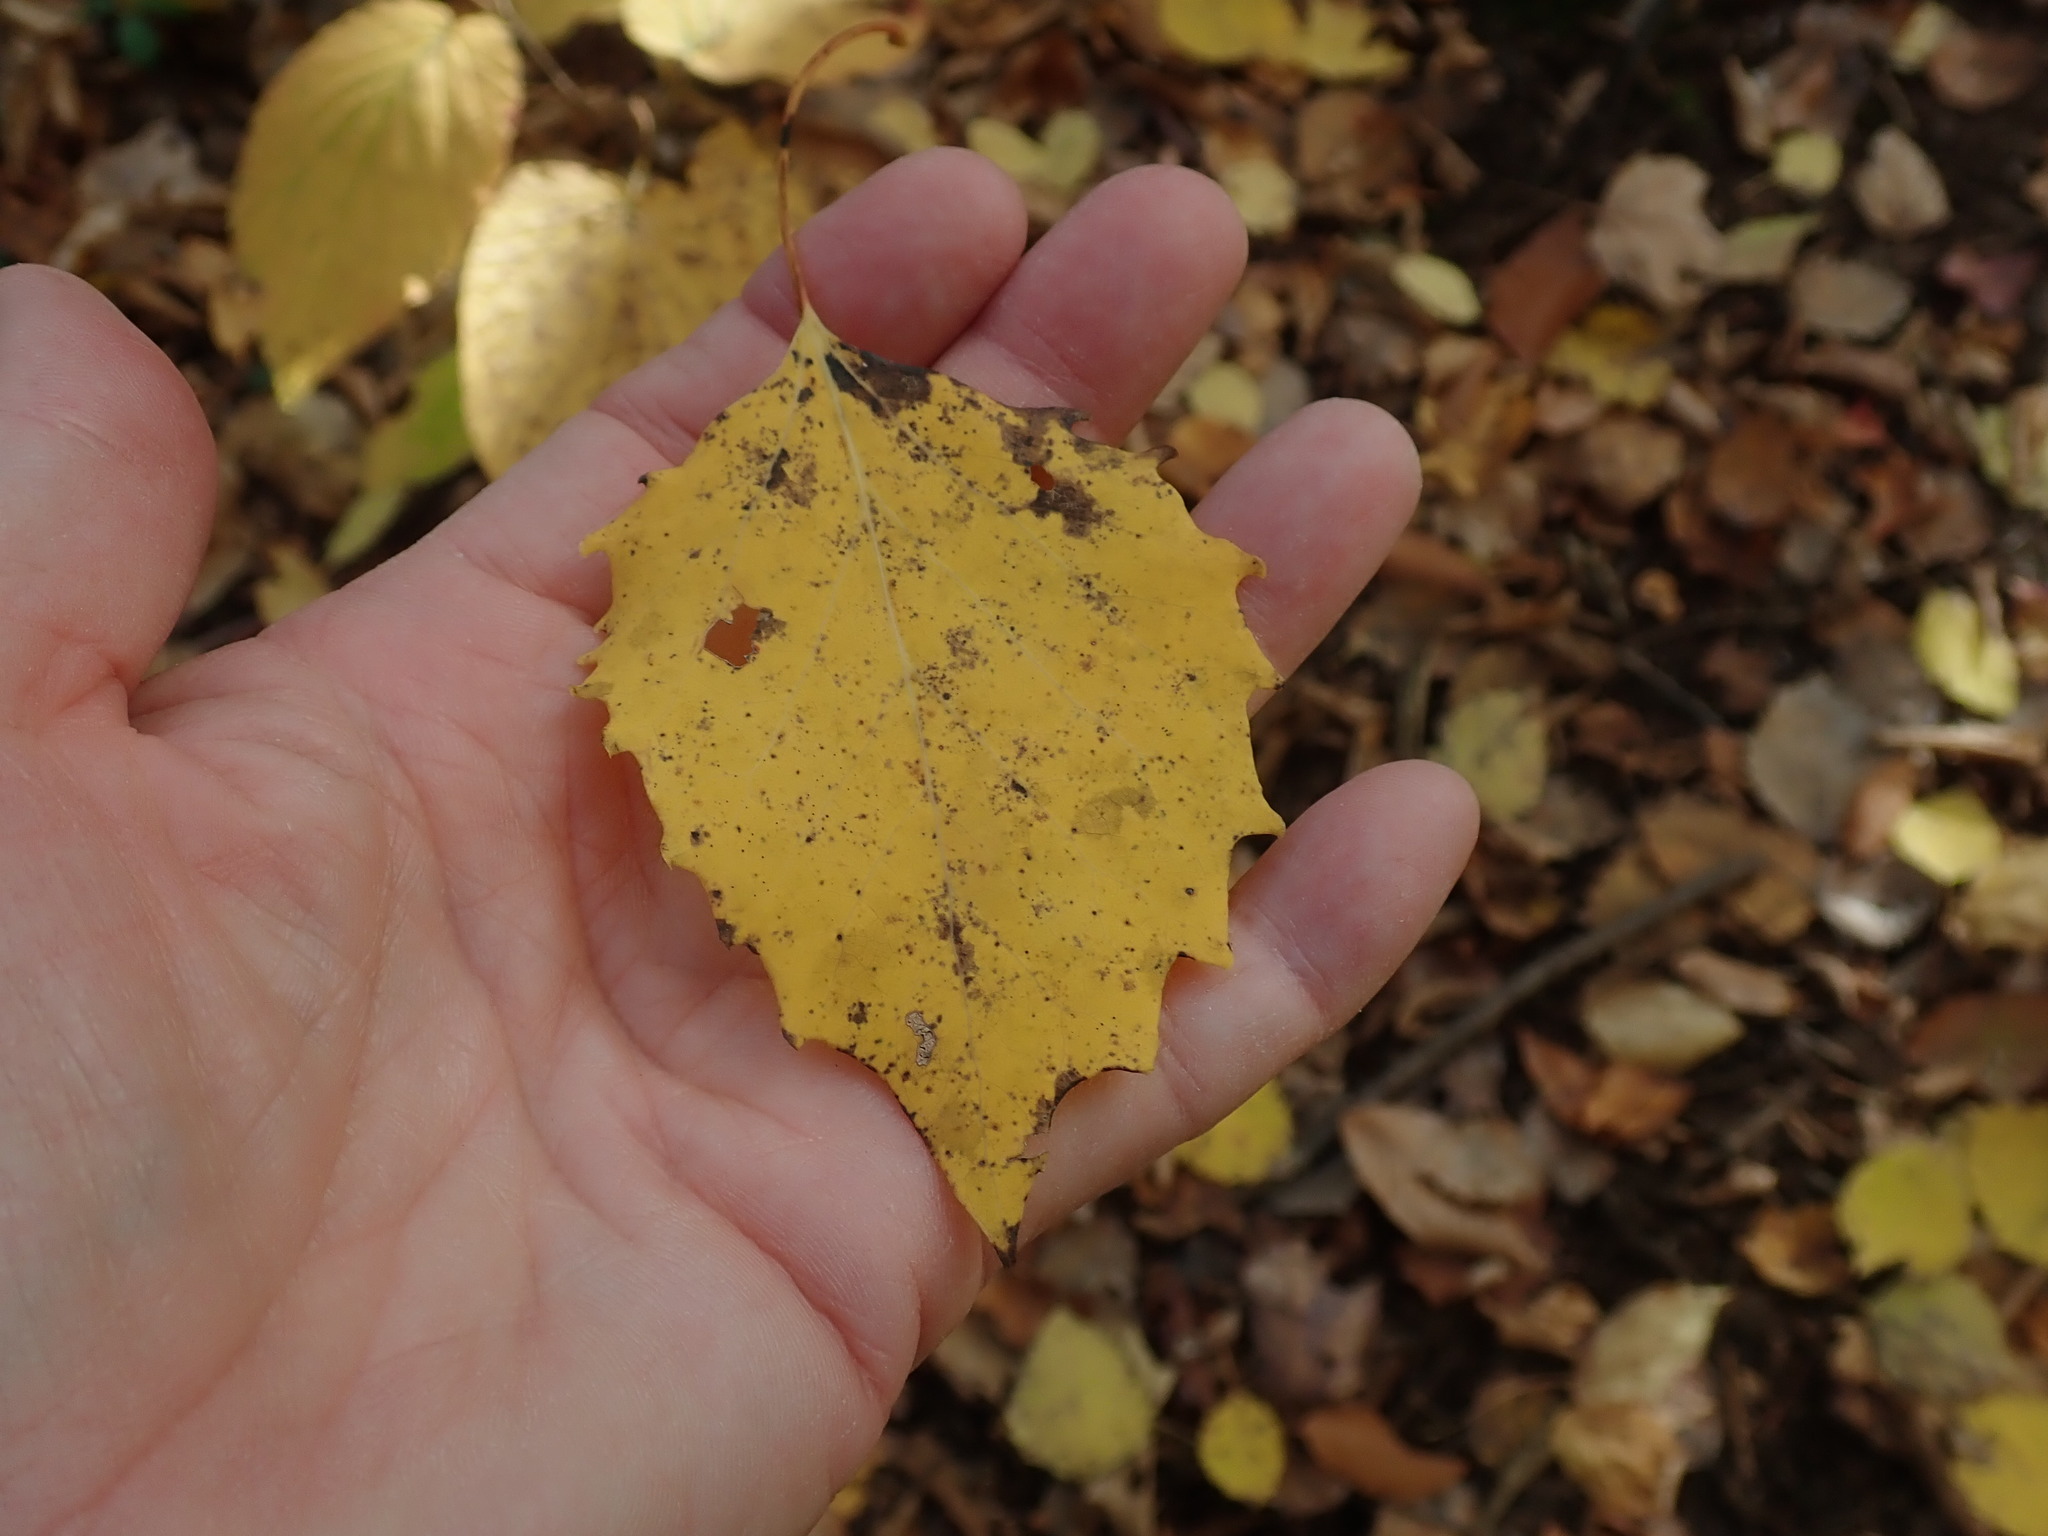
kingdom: Plantae
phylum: Tracheophyta
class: Magnoliopsida
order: Malpighiales
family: Salicaceae
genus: Populus
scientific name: Populus grandidentata
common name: Bigtooth aspen
